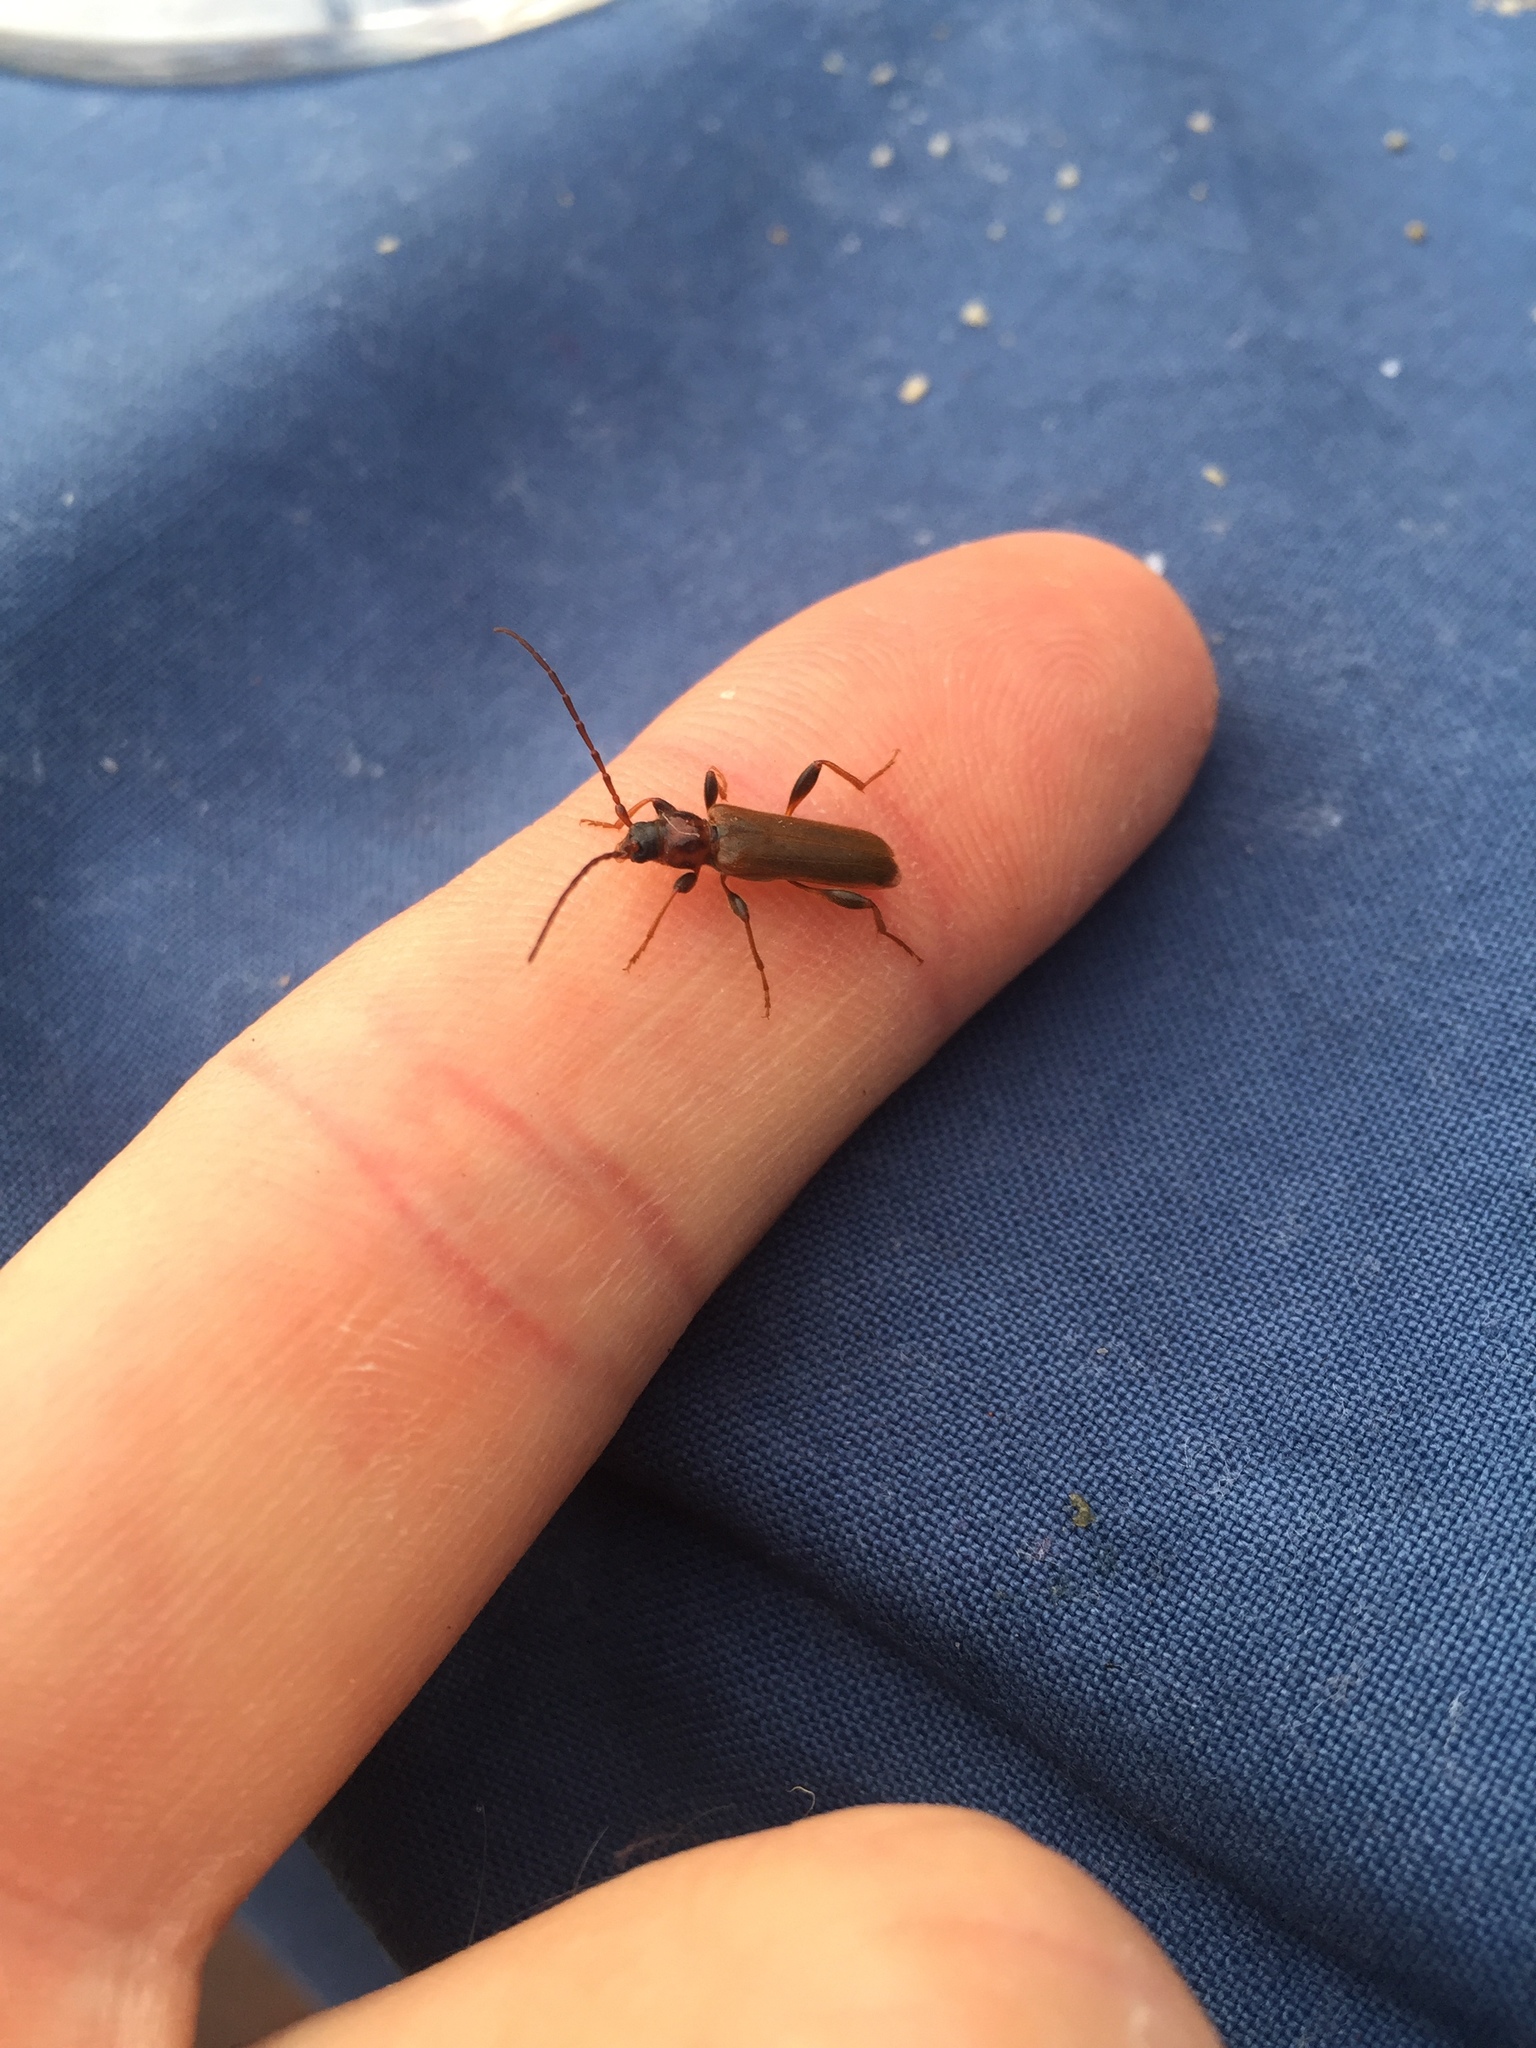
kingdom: Animalia
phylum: Arthropoda
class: Insecta
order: Coleoptera
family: Cerambycidae
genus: Phymatodes
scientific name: Phymatodes testaceus
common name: Long-horned beetle
